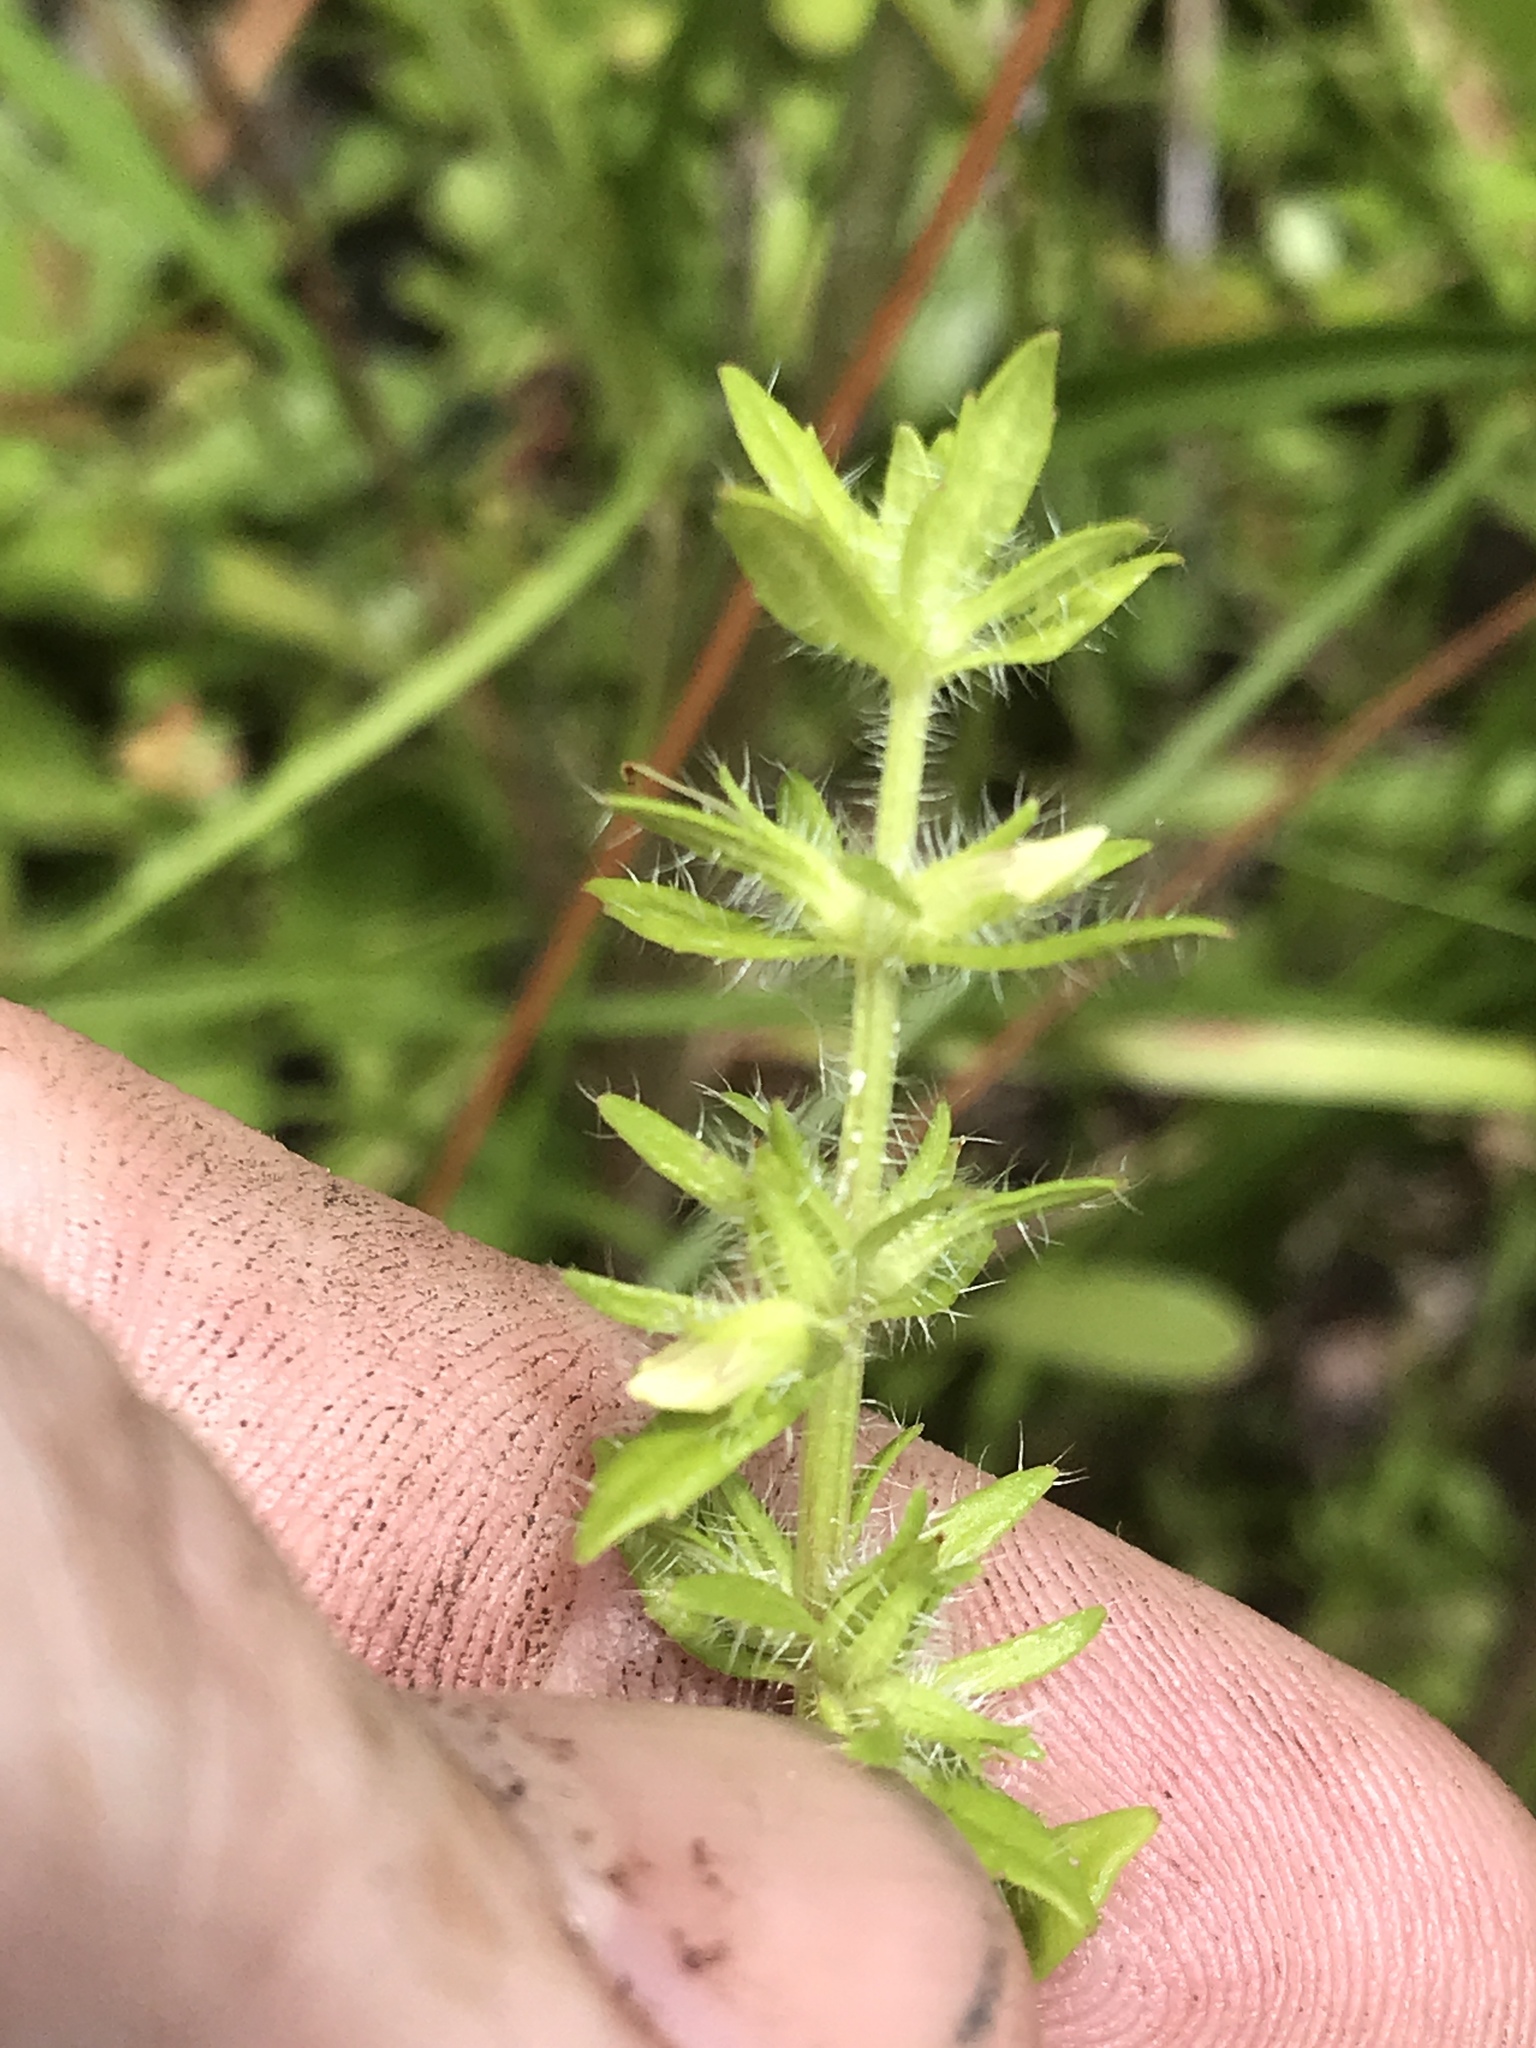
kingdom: Plantae
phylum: Tracheophyta
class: Magnoliopsida
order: Lamiales
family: Plantaginaceae
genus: Gratiola
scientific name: Gratiola pilosa
